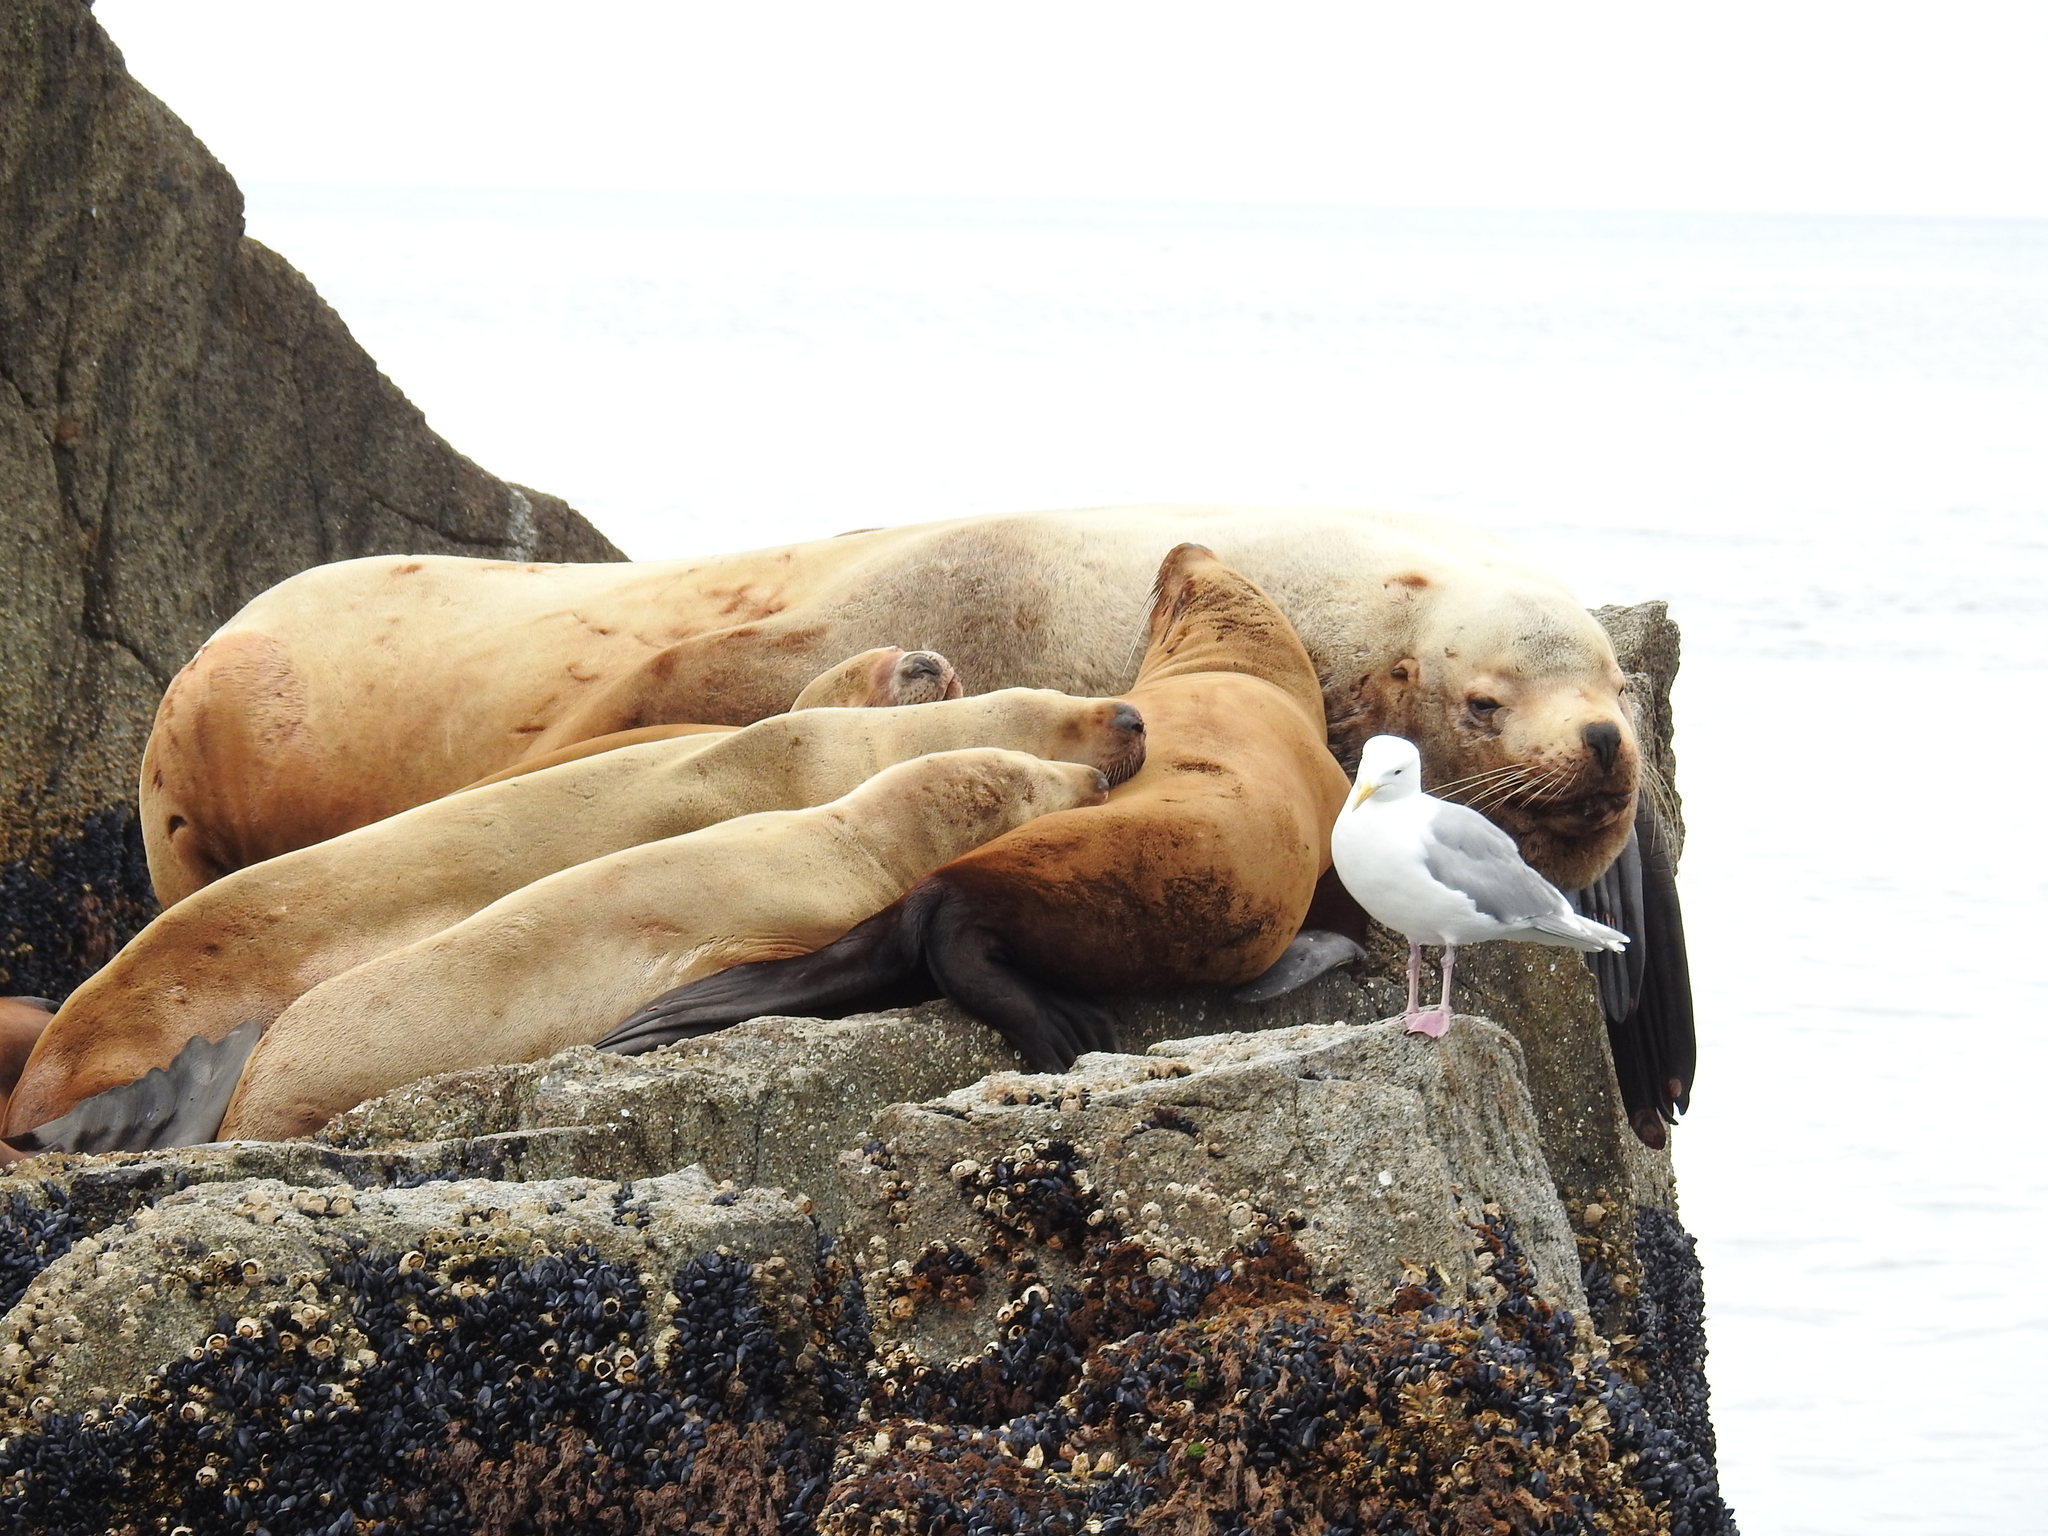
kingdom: Animalia
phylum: Chordata
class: Mammalia
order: Carnivora
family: Otariidae
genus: Eumetopias
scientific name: Eumetopias jubatus
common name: Steller sea lion
